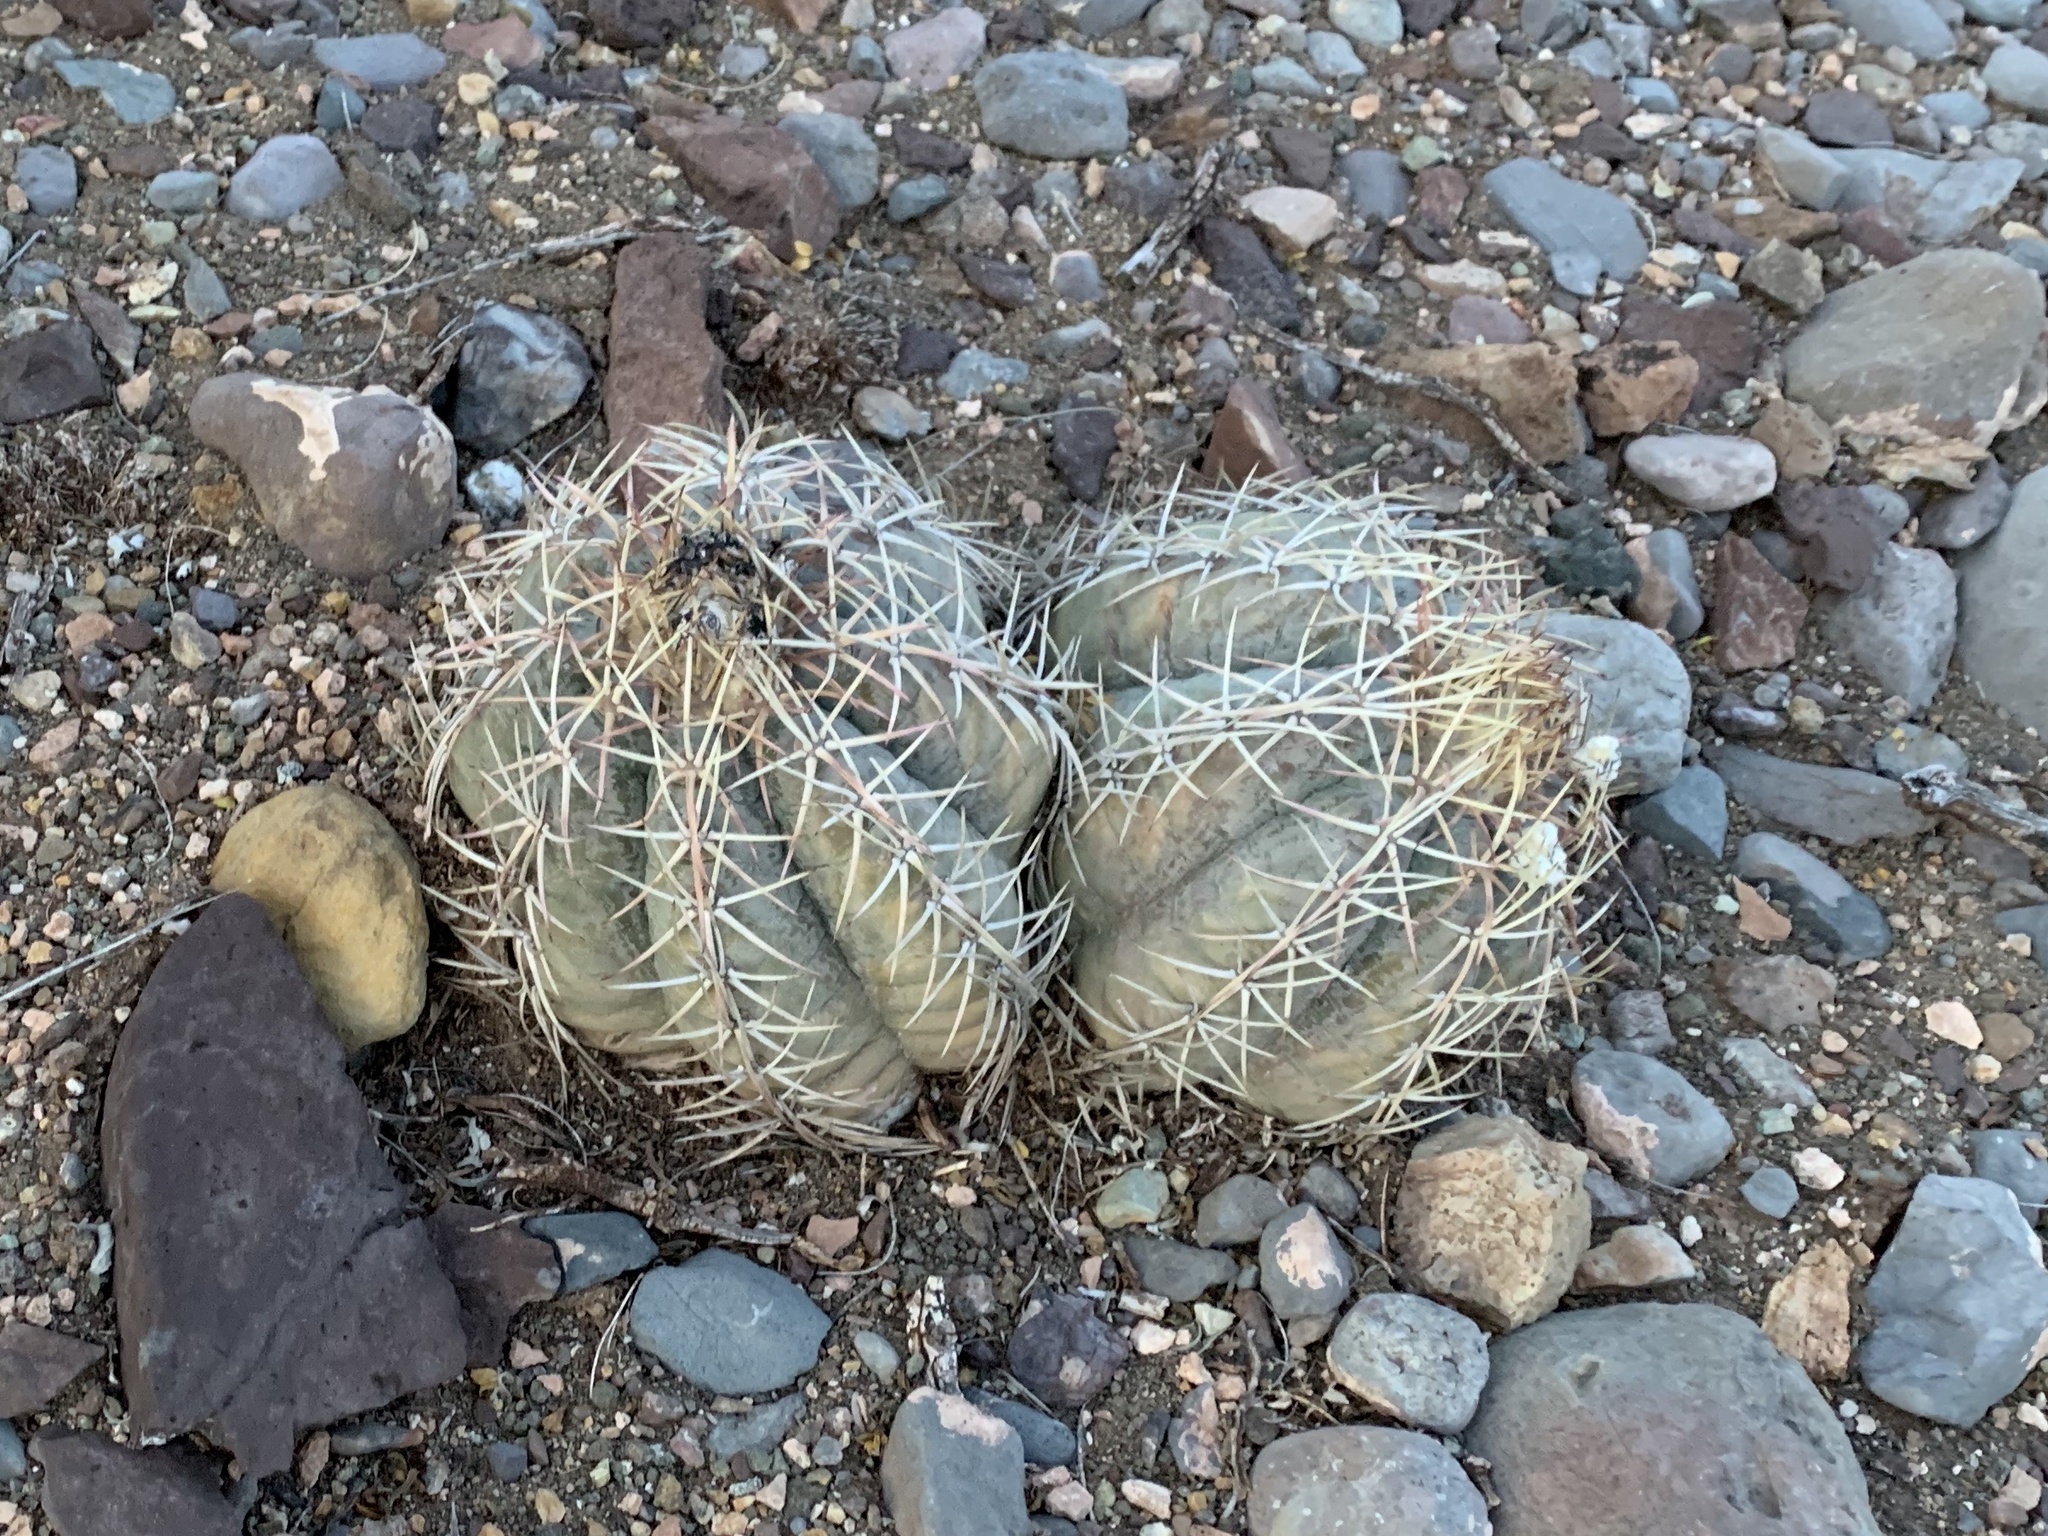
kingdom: Plantae
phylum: Tracheophyta
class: Magnoliopsida
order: Caryophyllales
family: Cactaceae
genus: Echinocactus
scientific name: Echinocactus horizonthalonius
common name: Devilshead
